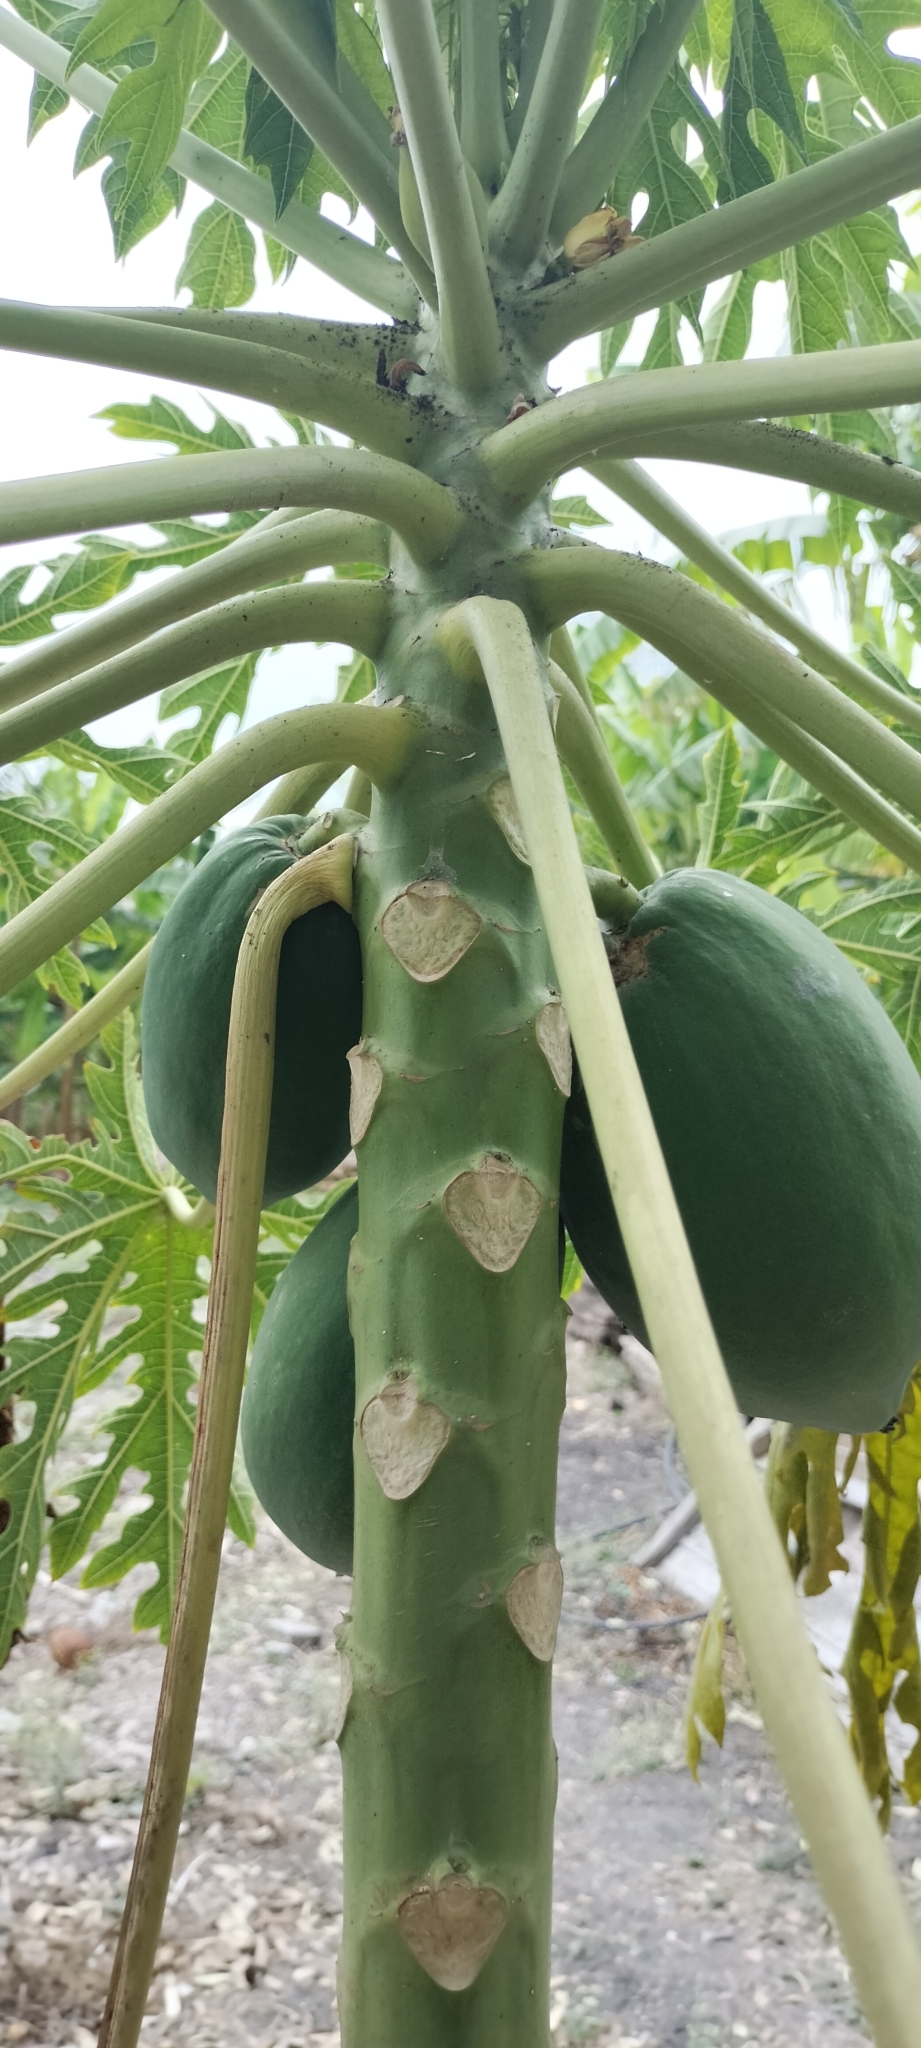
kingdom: Plantae
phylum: Tracheophyta
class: Magnoliopsida
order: Brassicales
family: Caricaceae
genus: Carica
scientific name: Carica papaya
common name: Papaya
